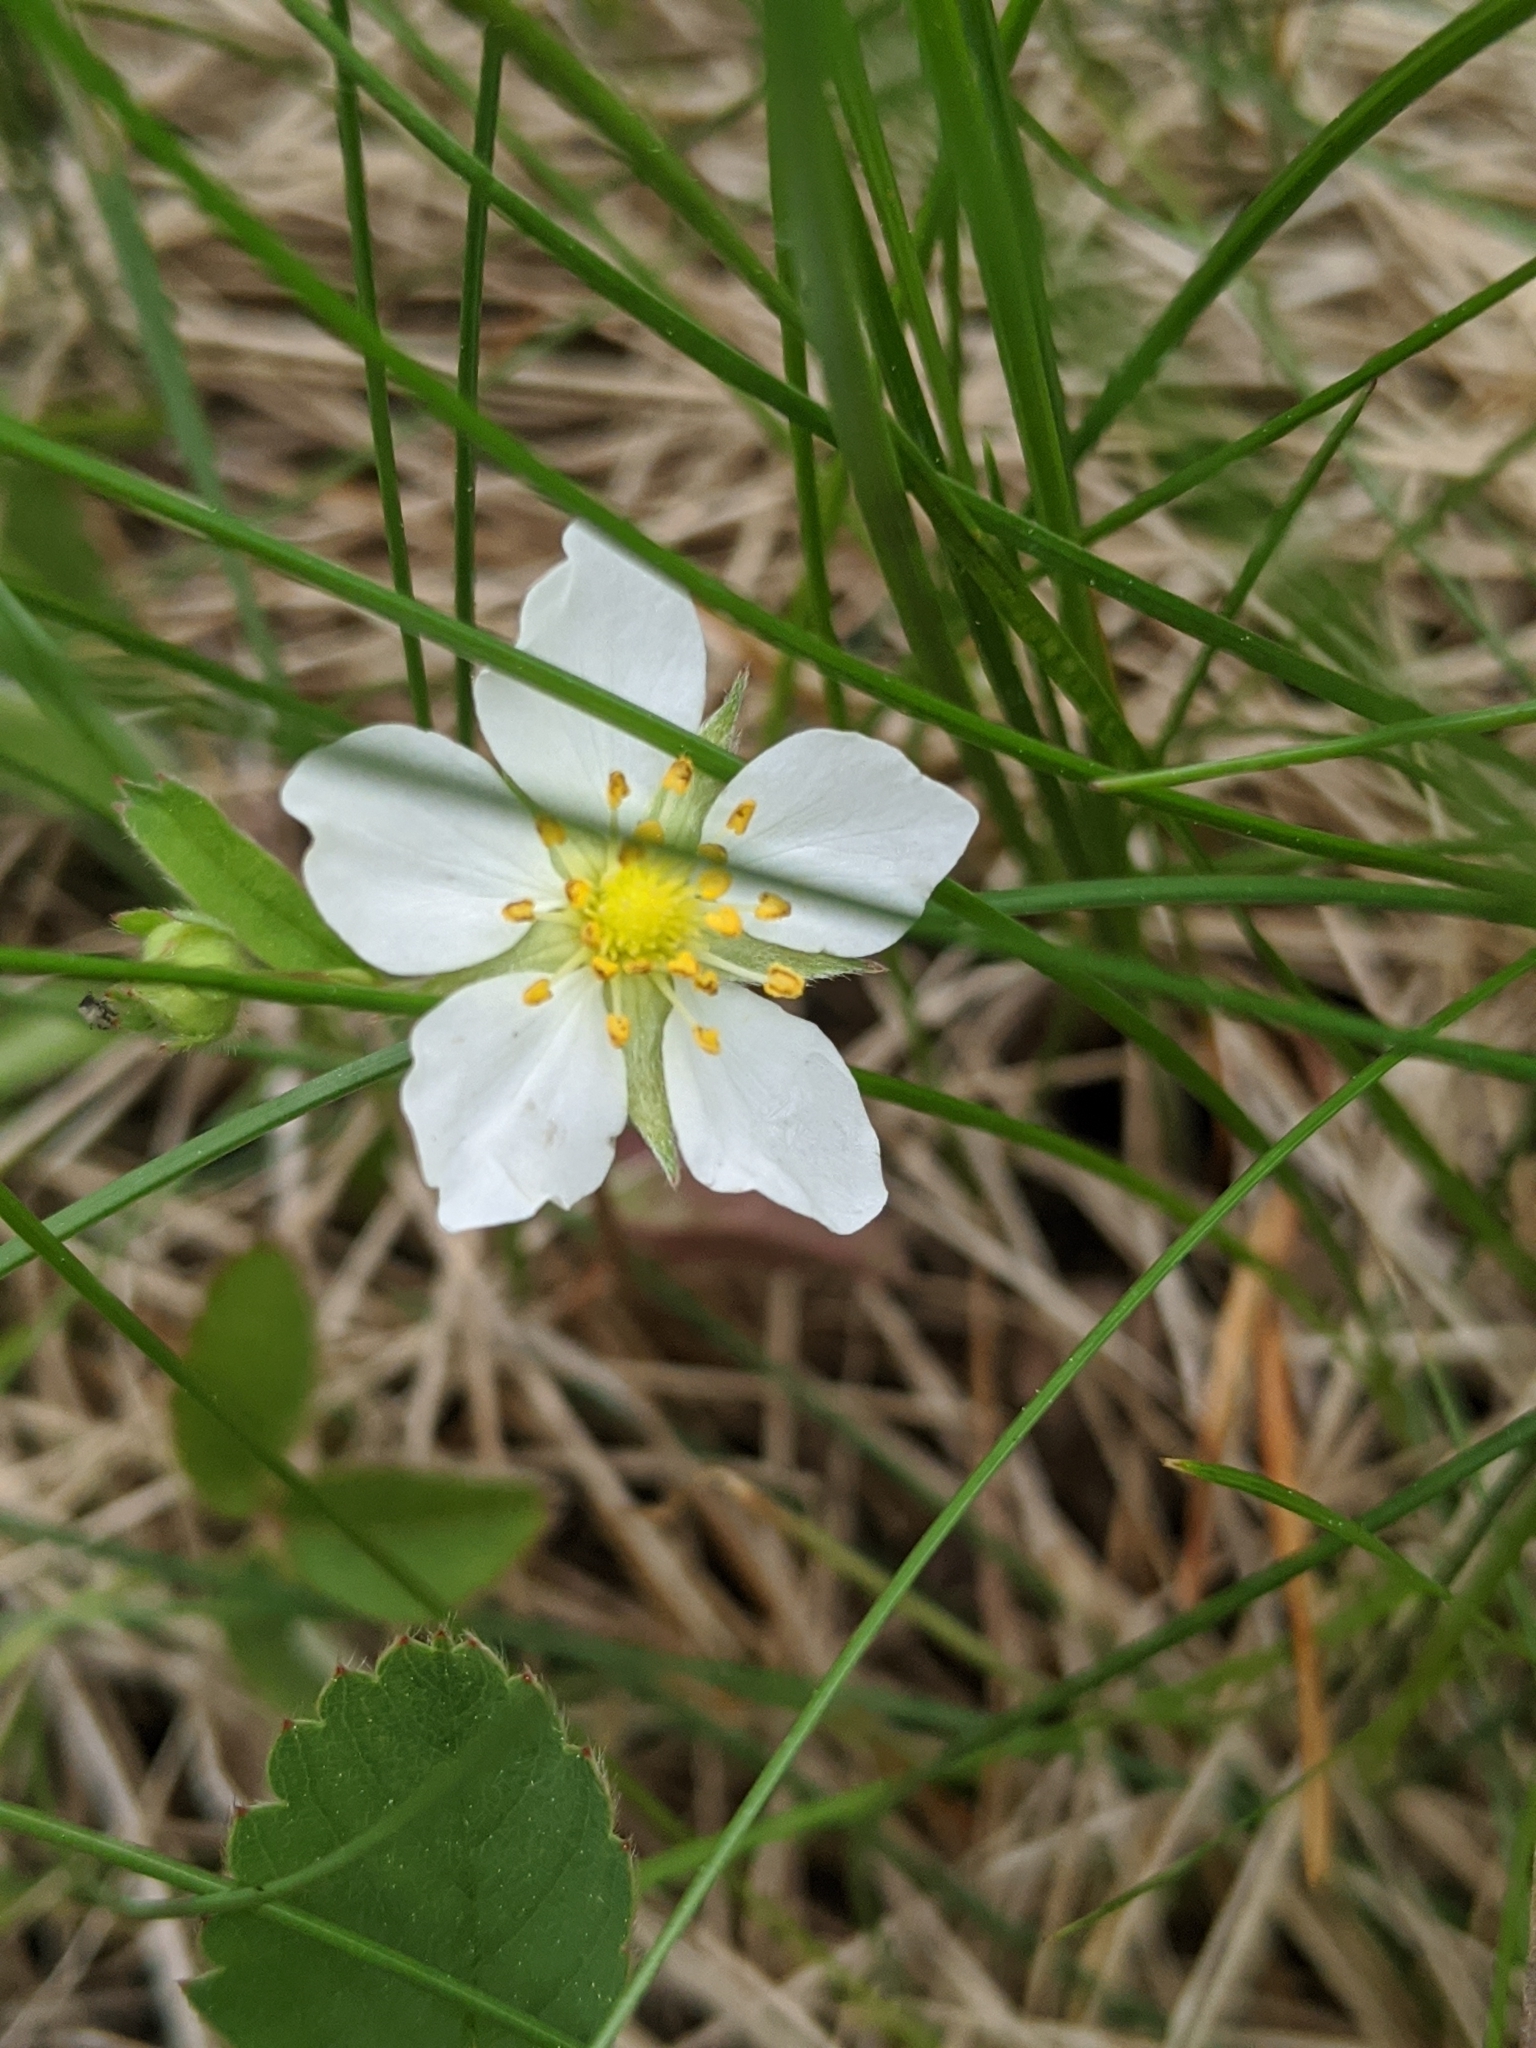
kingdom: Plantae
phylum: Tracheophyta
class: Magnoliopsida
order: Rosales
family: Rosaceae
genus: Fragaria
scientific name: Fragaria virginiana
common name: Thickleaved wild strawberry
